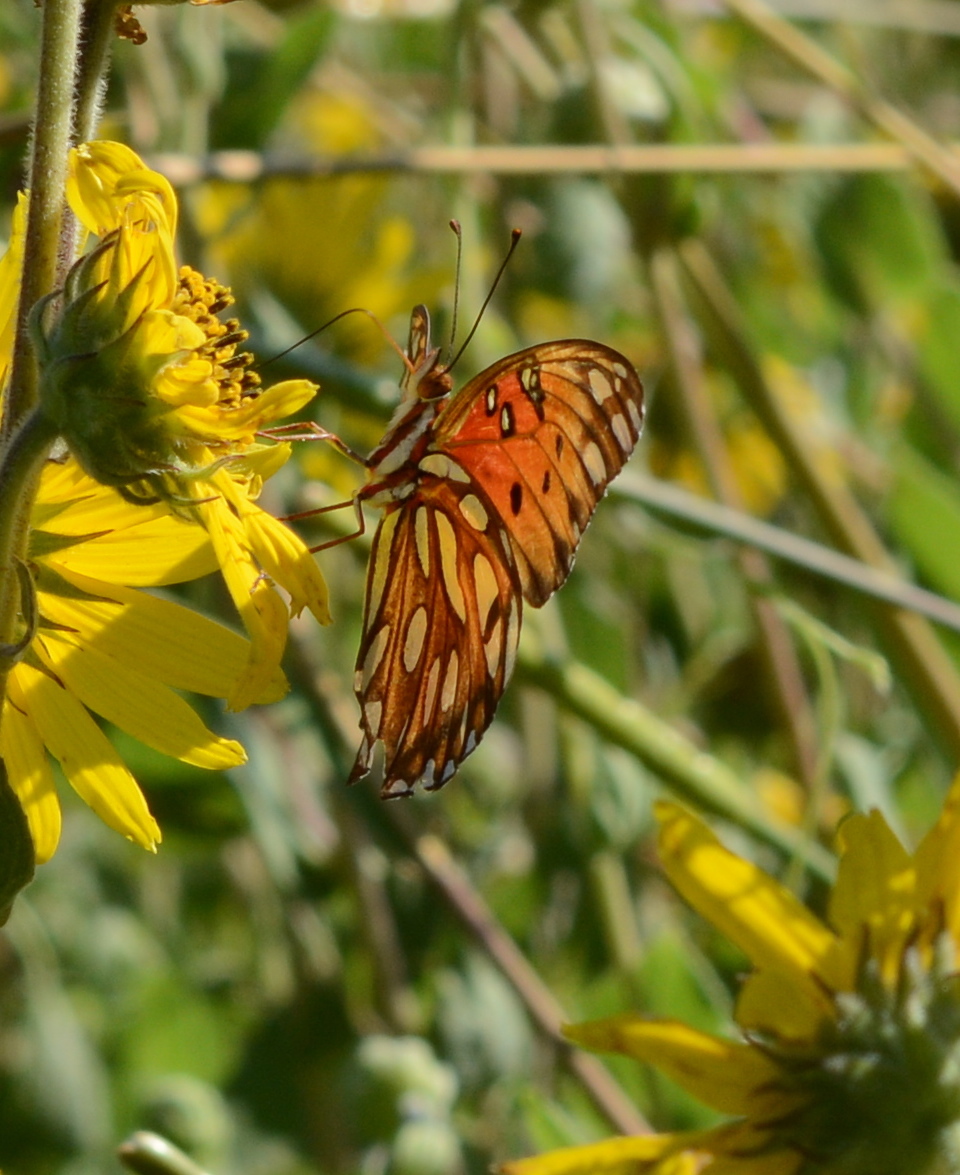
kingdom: Animalia
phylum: Arthropoda
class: Insecta
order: Lepidoptera
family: Nymphalidae
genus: Dione
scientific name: Dione vanillae
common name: Gulf fritillary
